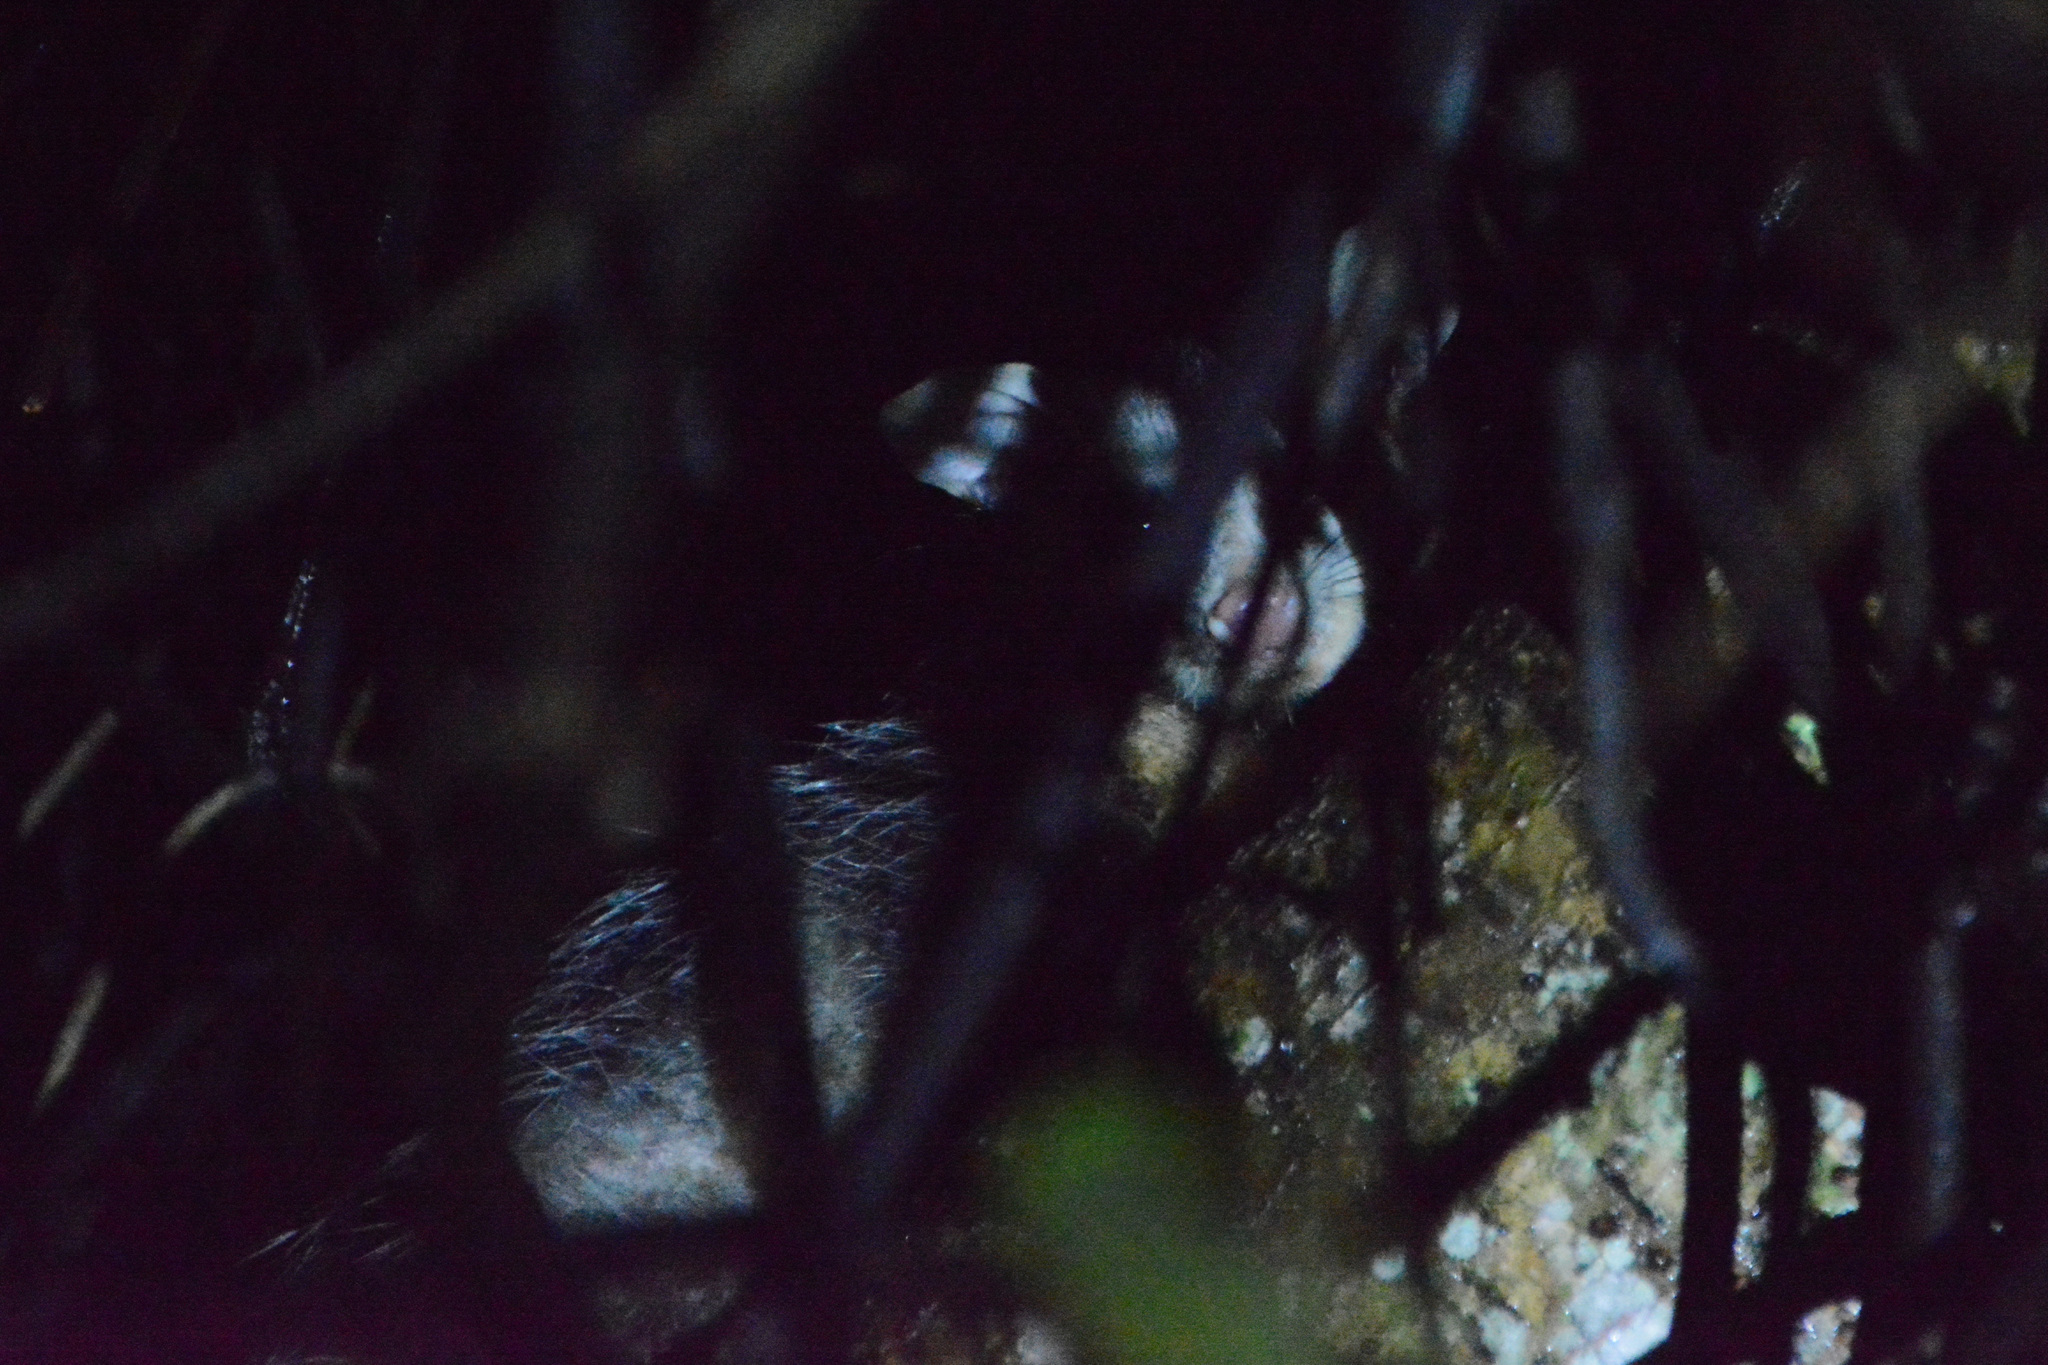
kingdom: Animalia
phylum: Chordata
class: Mammalia
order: Didelphimorphia
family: Didelphidae
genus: Didelphis
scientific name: Didelphis albiventris
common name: White-eared opossum
